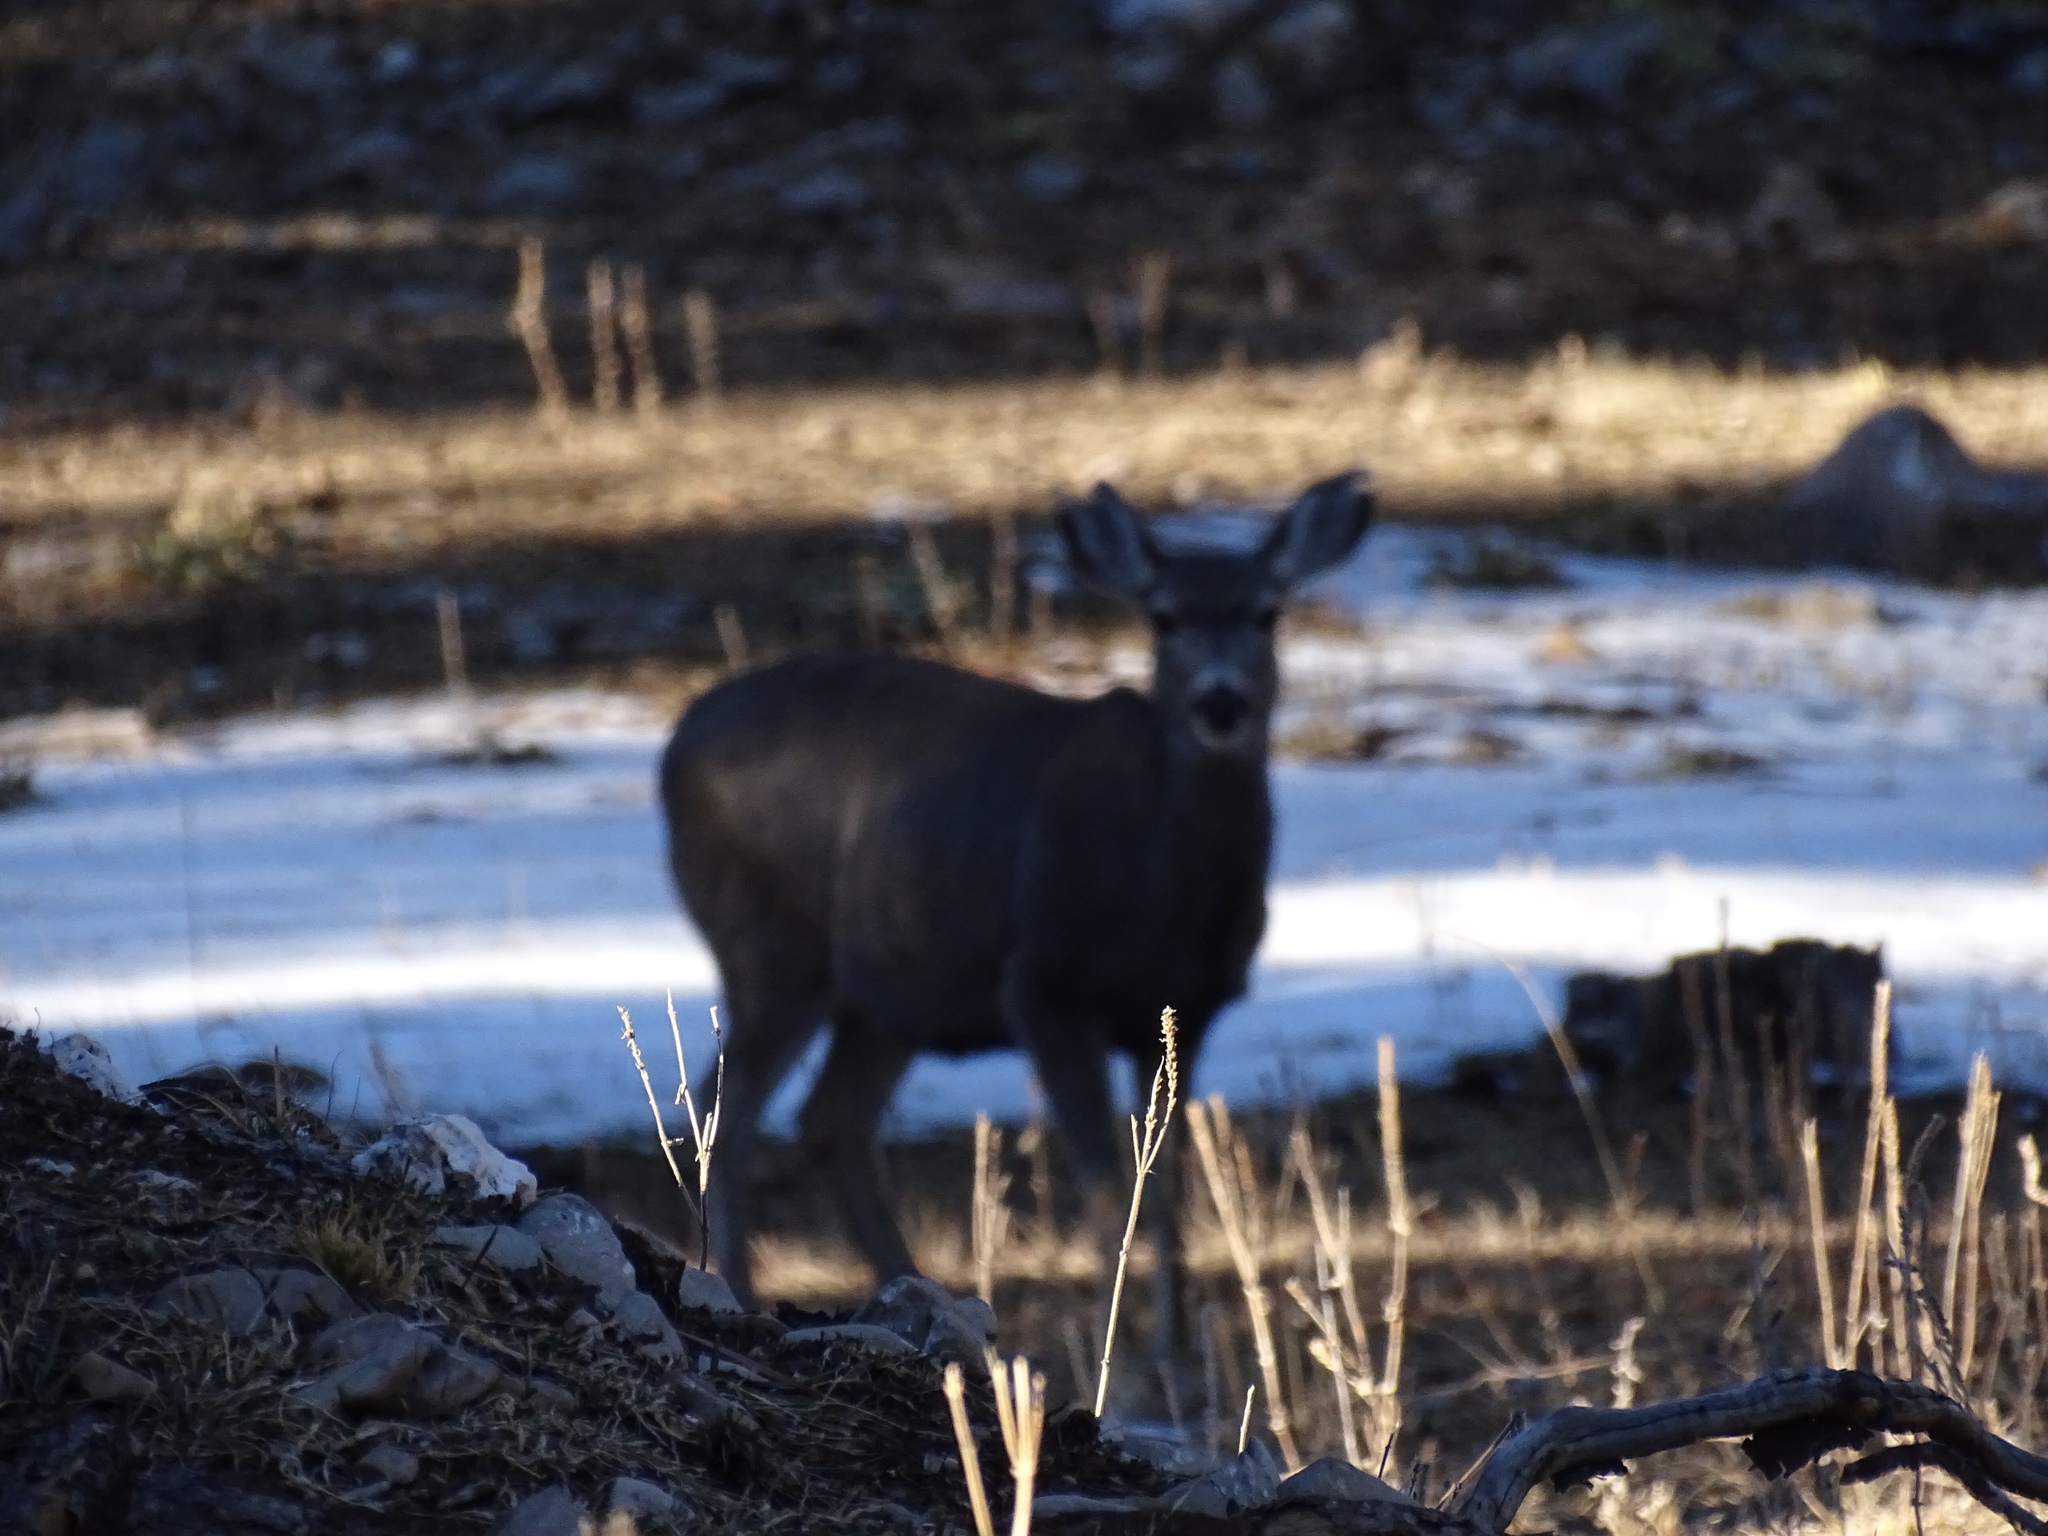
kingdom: Animalia
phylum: Chordata
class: Mammalia
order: Artiodactyla
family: Cervidae
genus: Odocoileus
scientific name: Odocoileus hemionus
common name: Mule deer
